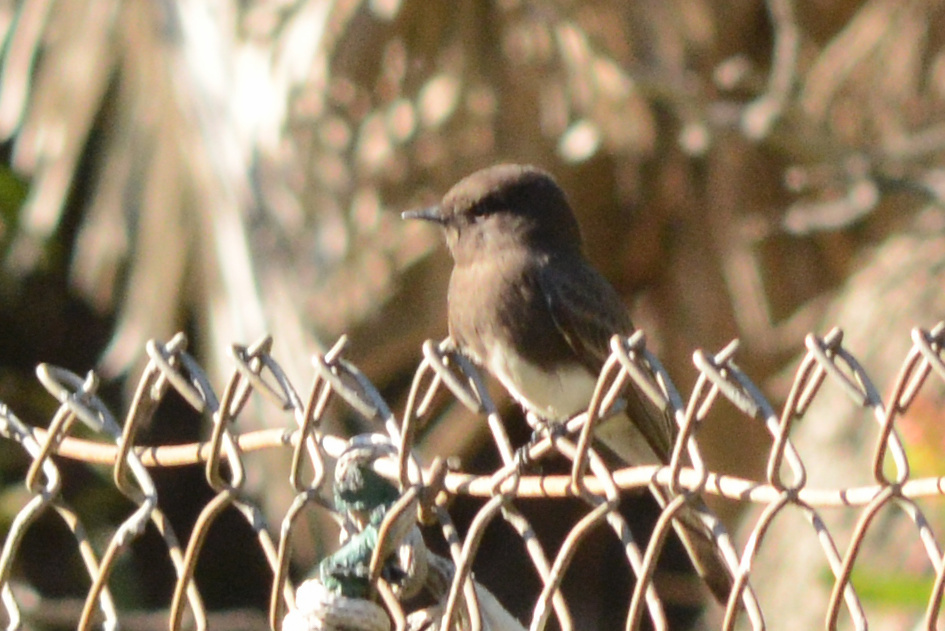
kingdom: Animalia
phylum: Chordata
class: Aves
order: Passeriformes
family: Tyrannidae
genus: Sayornis
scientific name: Sayornis nigricans
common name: Black phoebe
